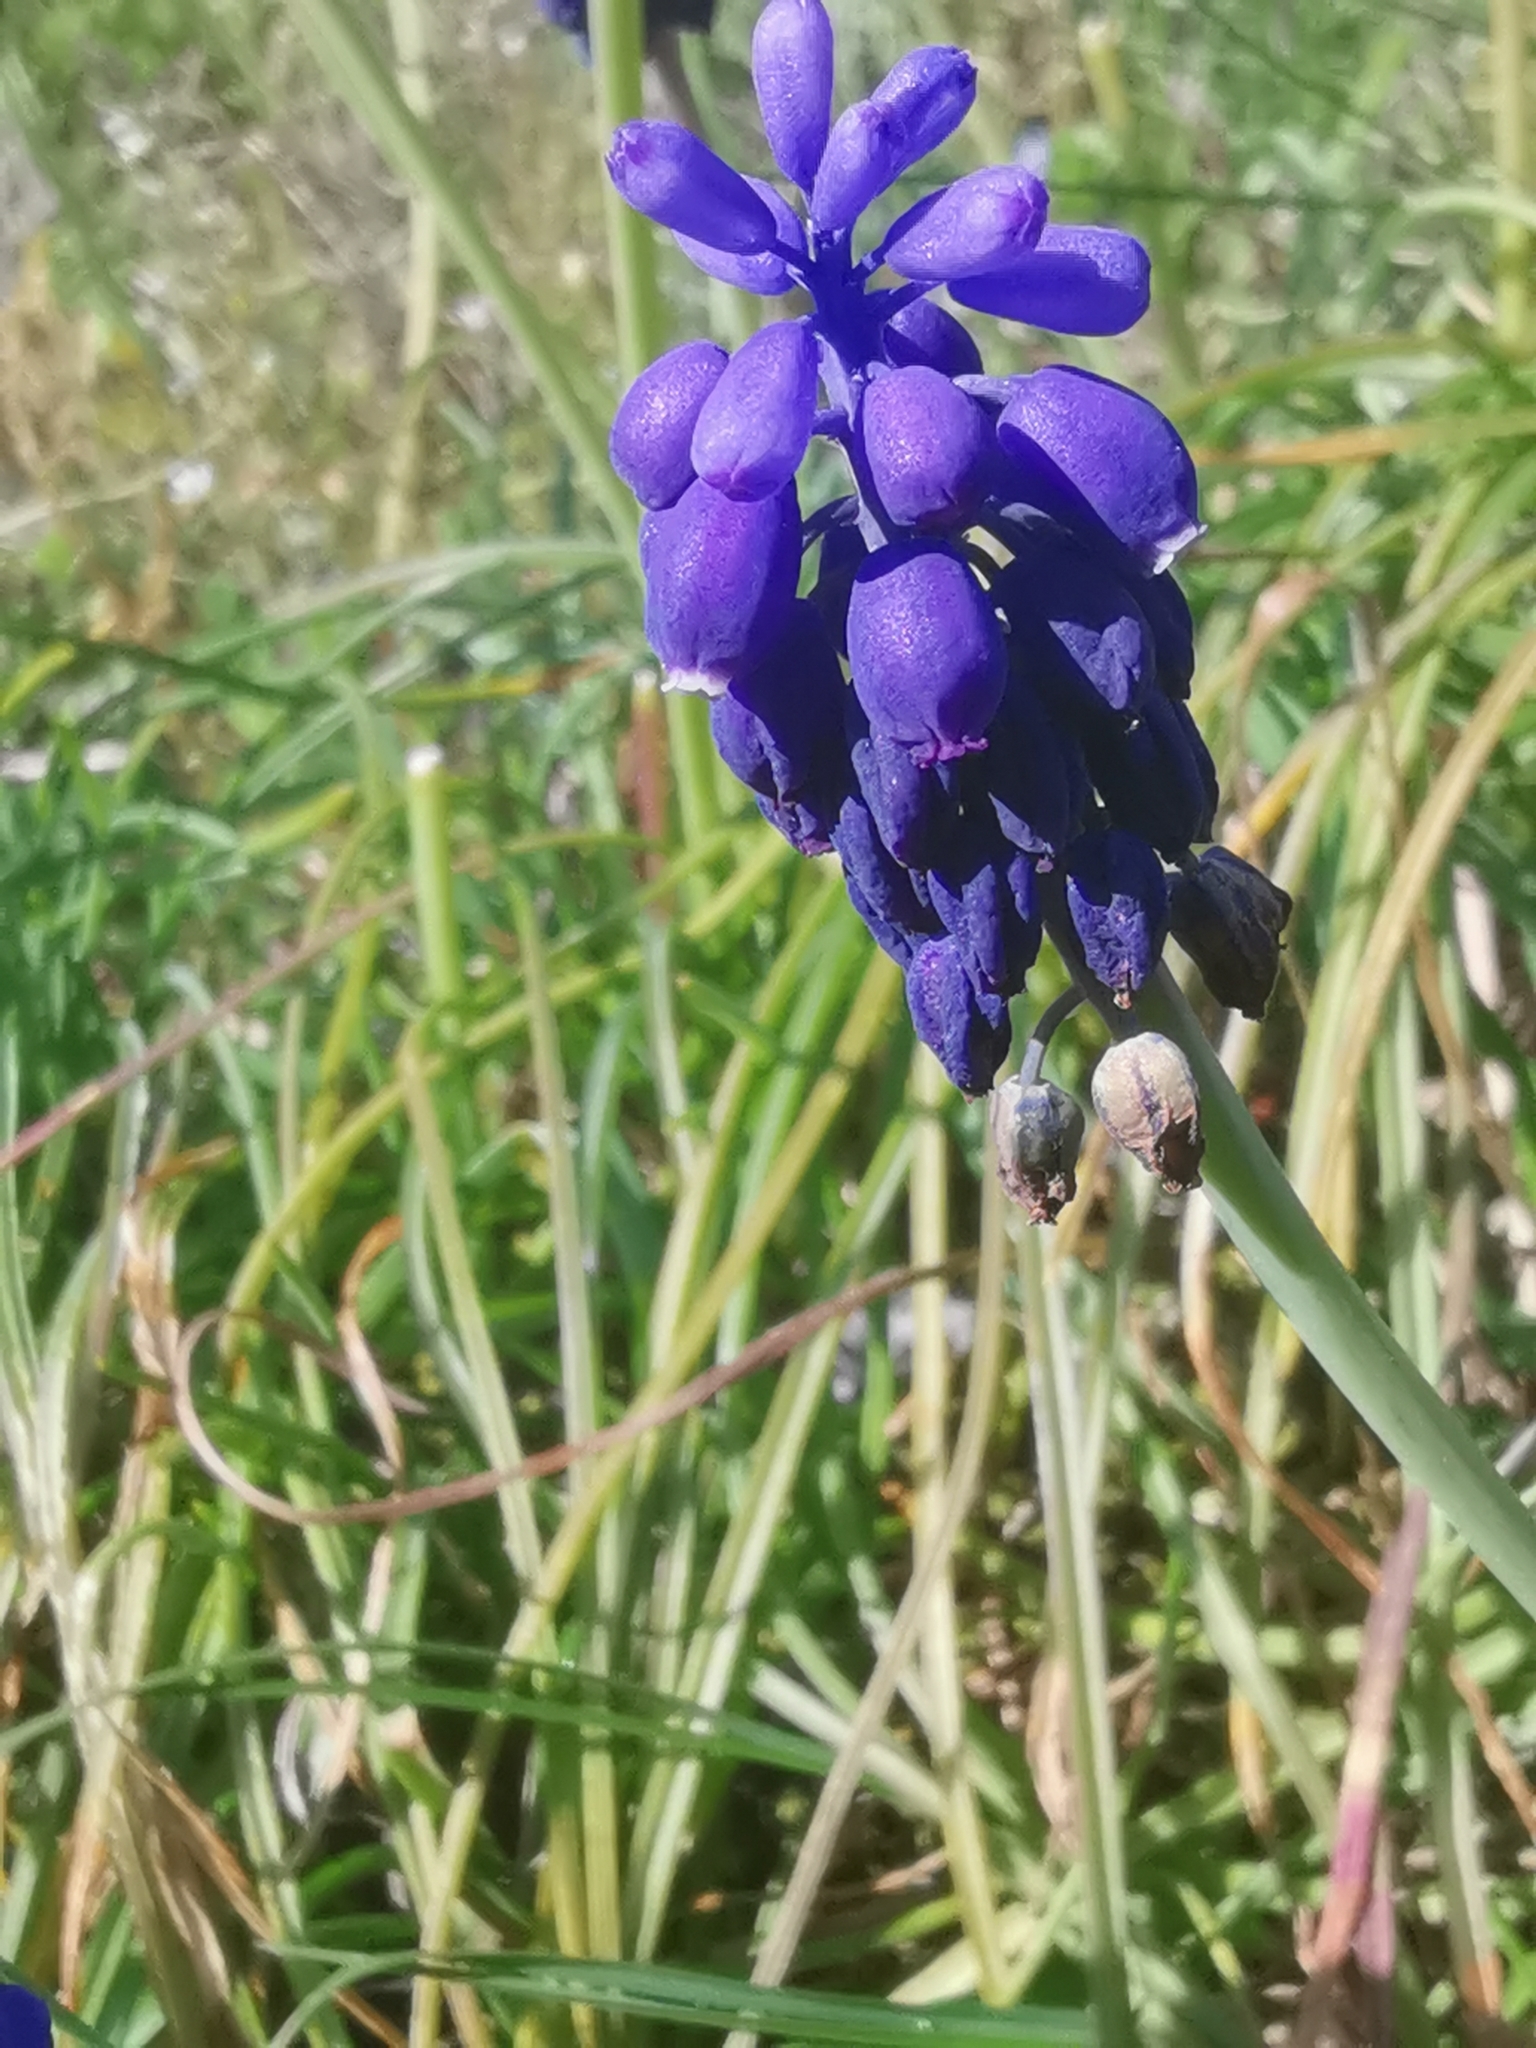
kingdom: Plantae
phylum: Tracheophyta
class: Liliopsida
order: Asparagales
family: Asparagaceae
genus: Muscari
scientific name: Muscari neglectum
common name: Grape-hyacinth
